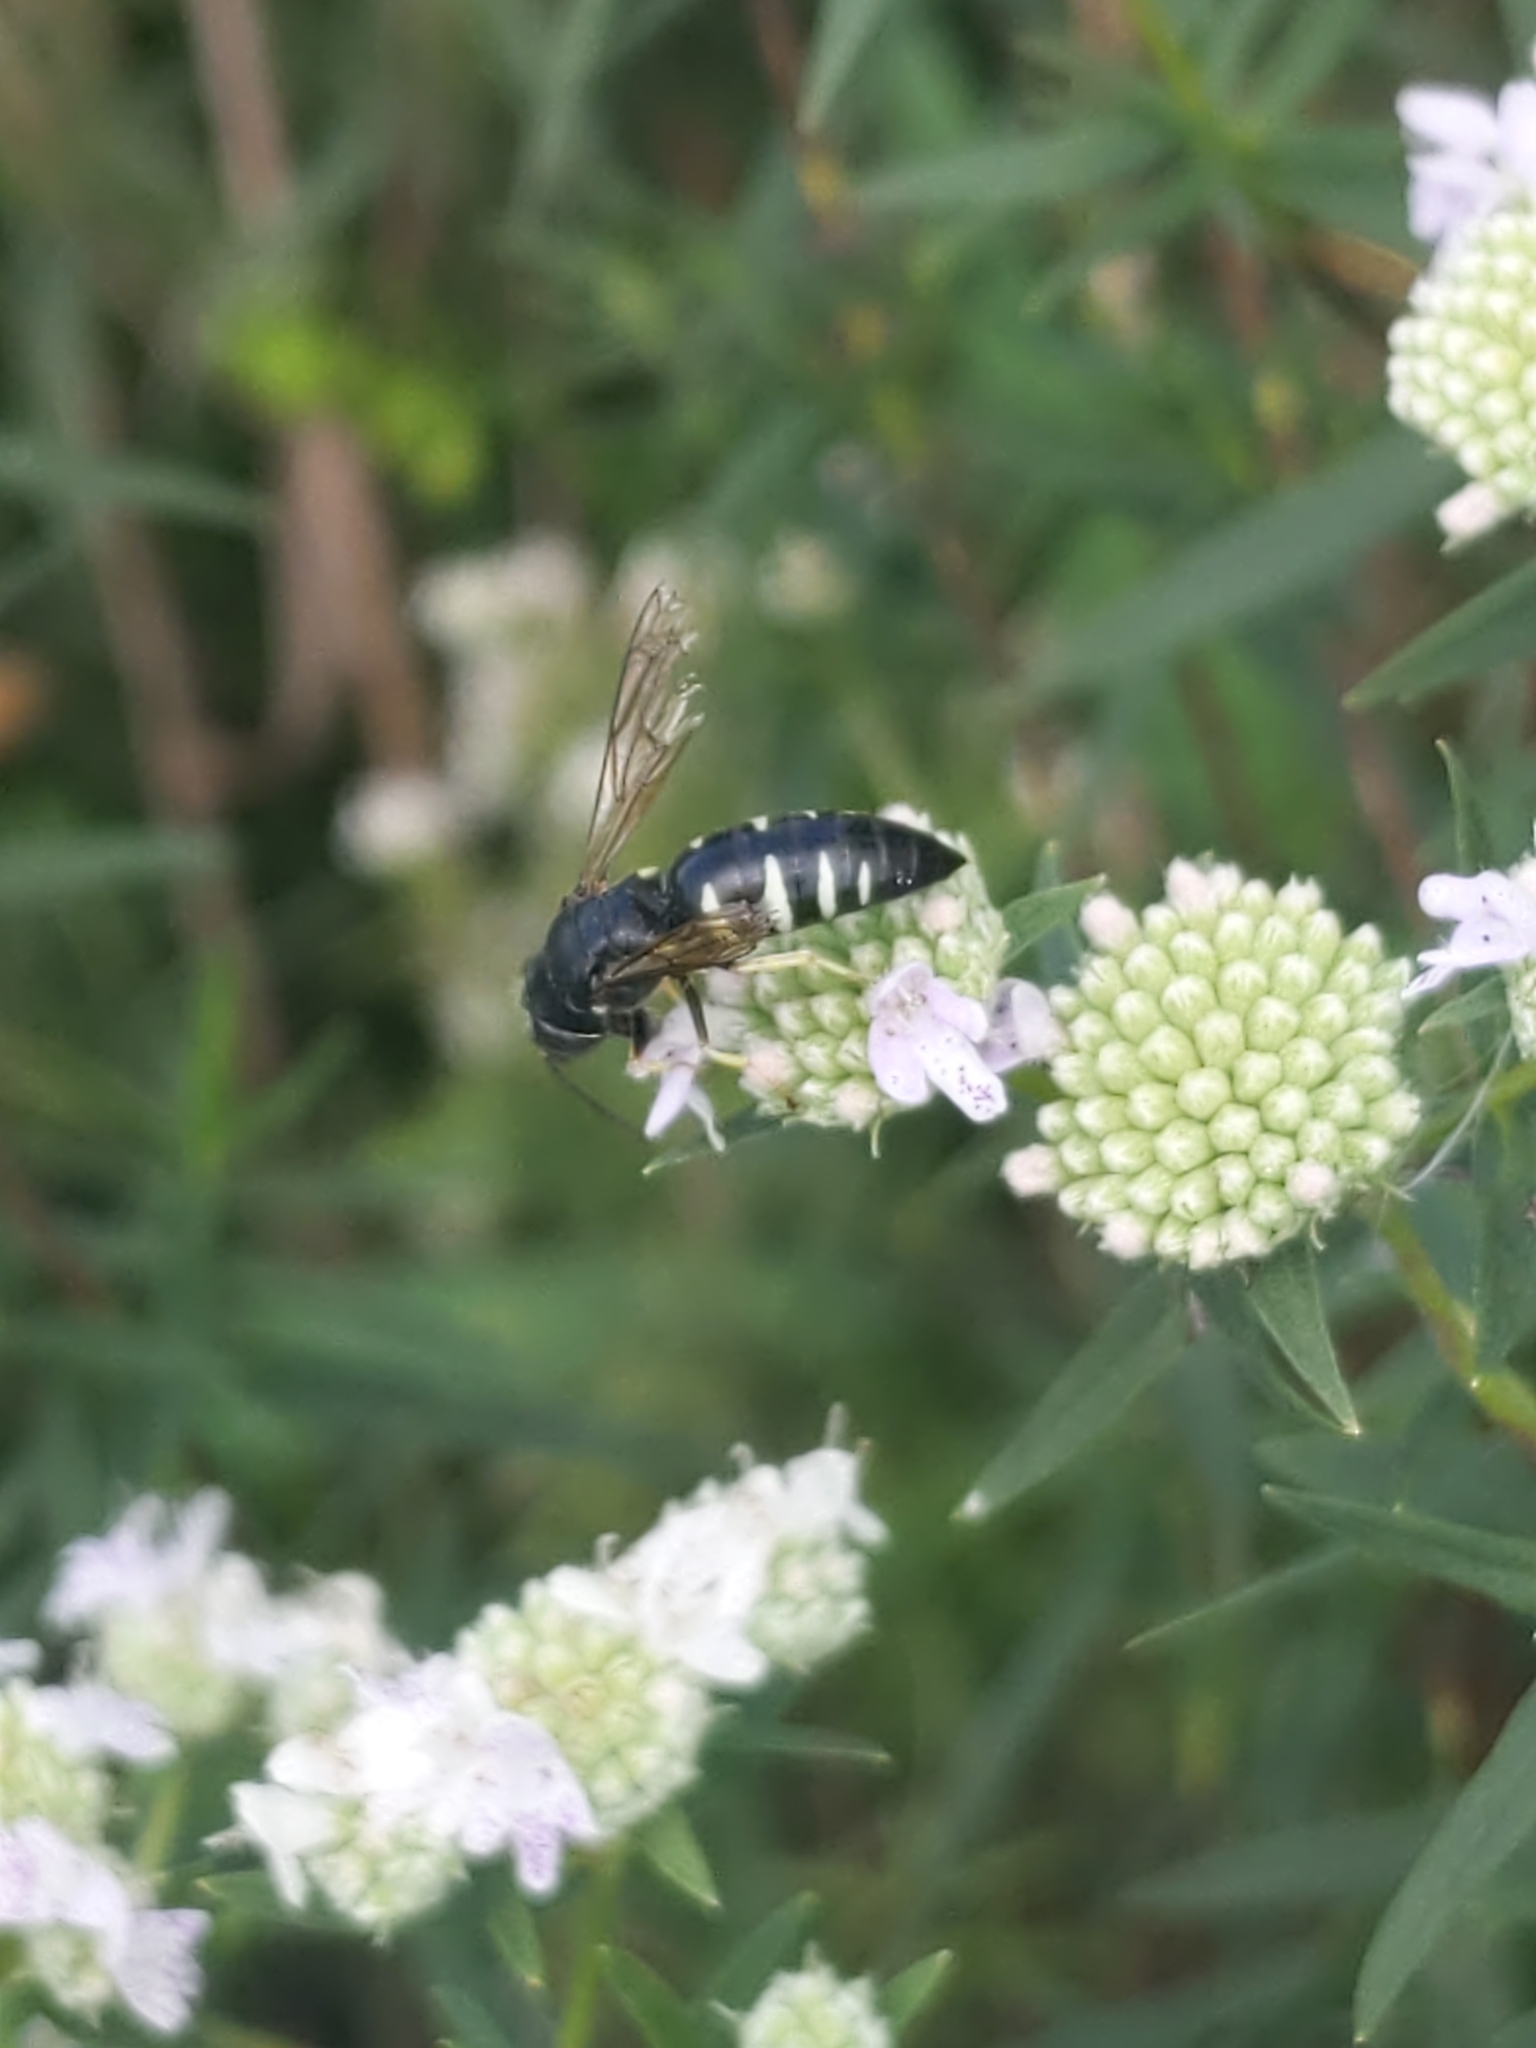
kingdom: Animalia
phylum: Arthropoda
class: Insecta
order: Hymenoptera
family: Crabronidae
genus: Bicyrtes
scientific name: Bicyrtes quadrifasciatus
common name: Four-banded stink bug hunter wasp
